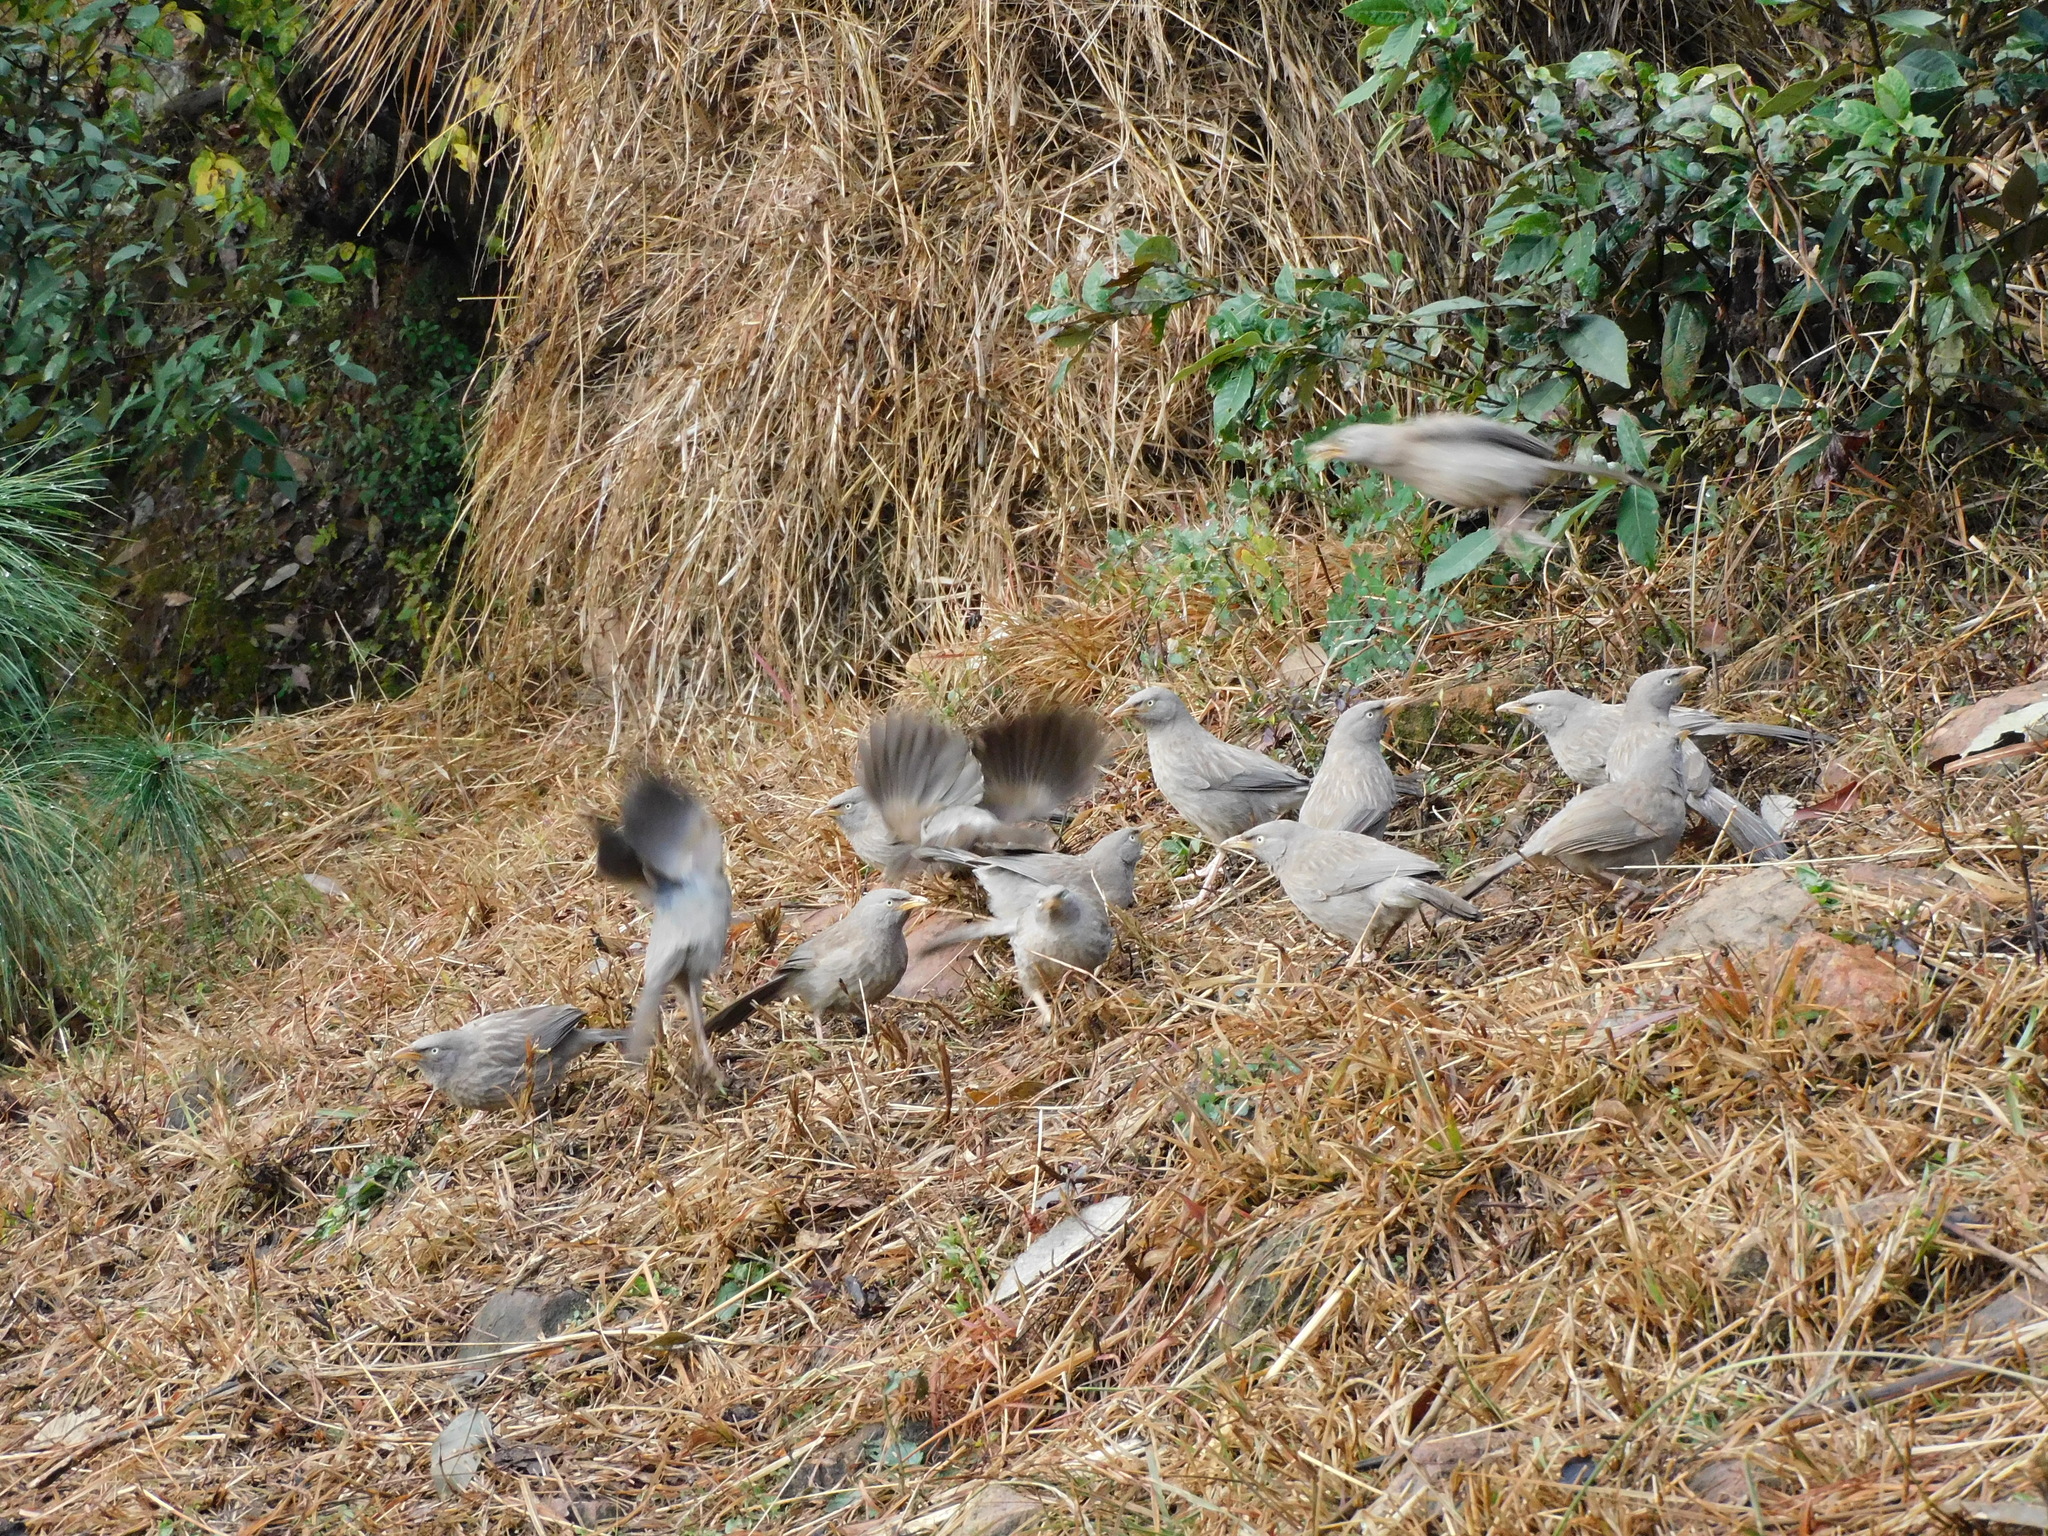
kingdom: Animalia
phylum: Chordata
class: Aves
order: Passeriformes
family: Leiothrichidae
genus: Turdoides
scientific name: Turdoides striata
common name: Jungle babbler
